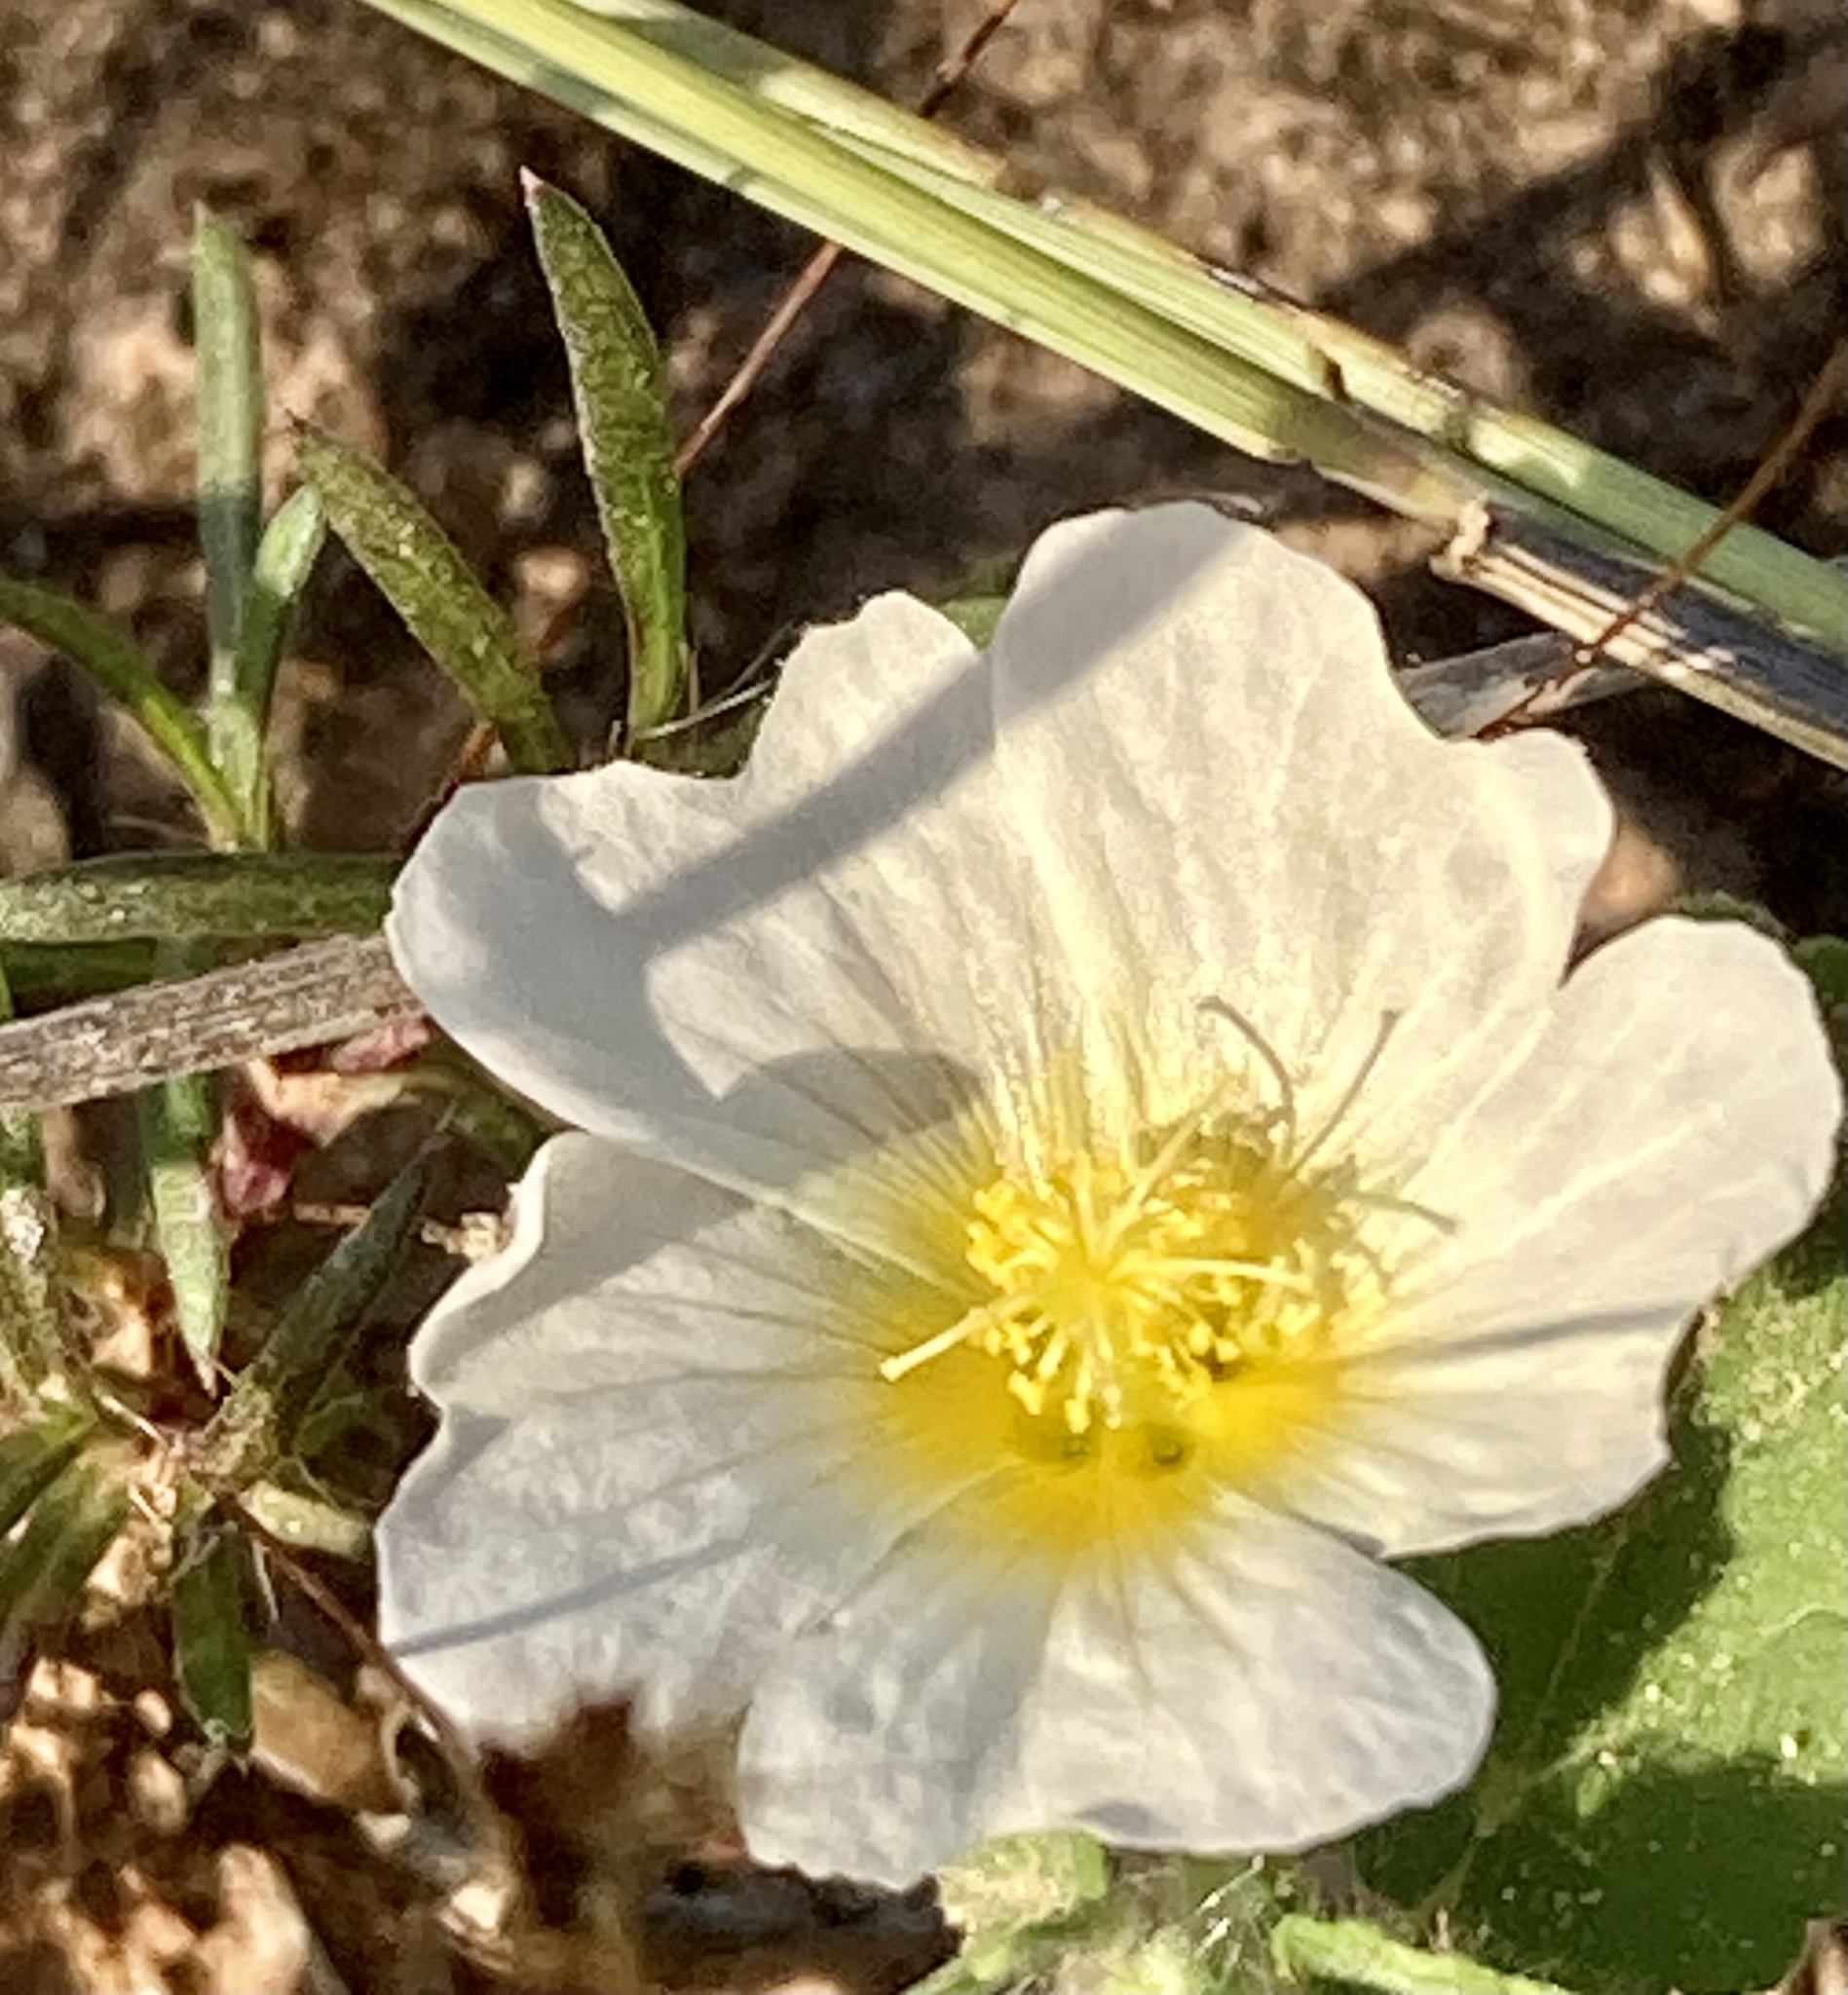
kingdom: Plantae
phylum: Tracheophyta
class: Magnoliopsida
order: Malvales
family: Malvaceae
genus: Sida
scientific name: Sida abutilifolia
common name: Spreading fanpetals
